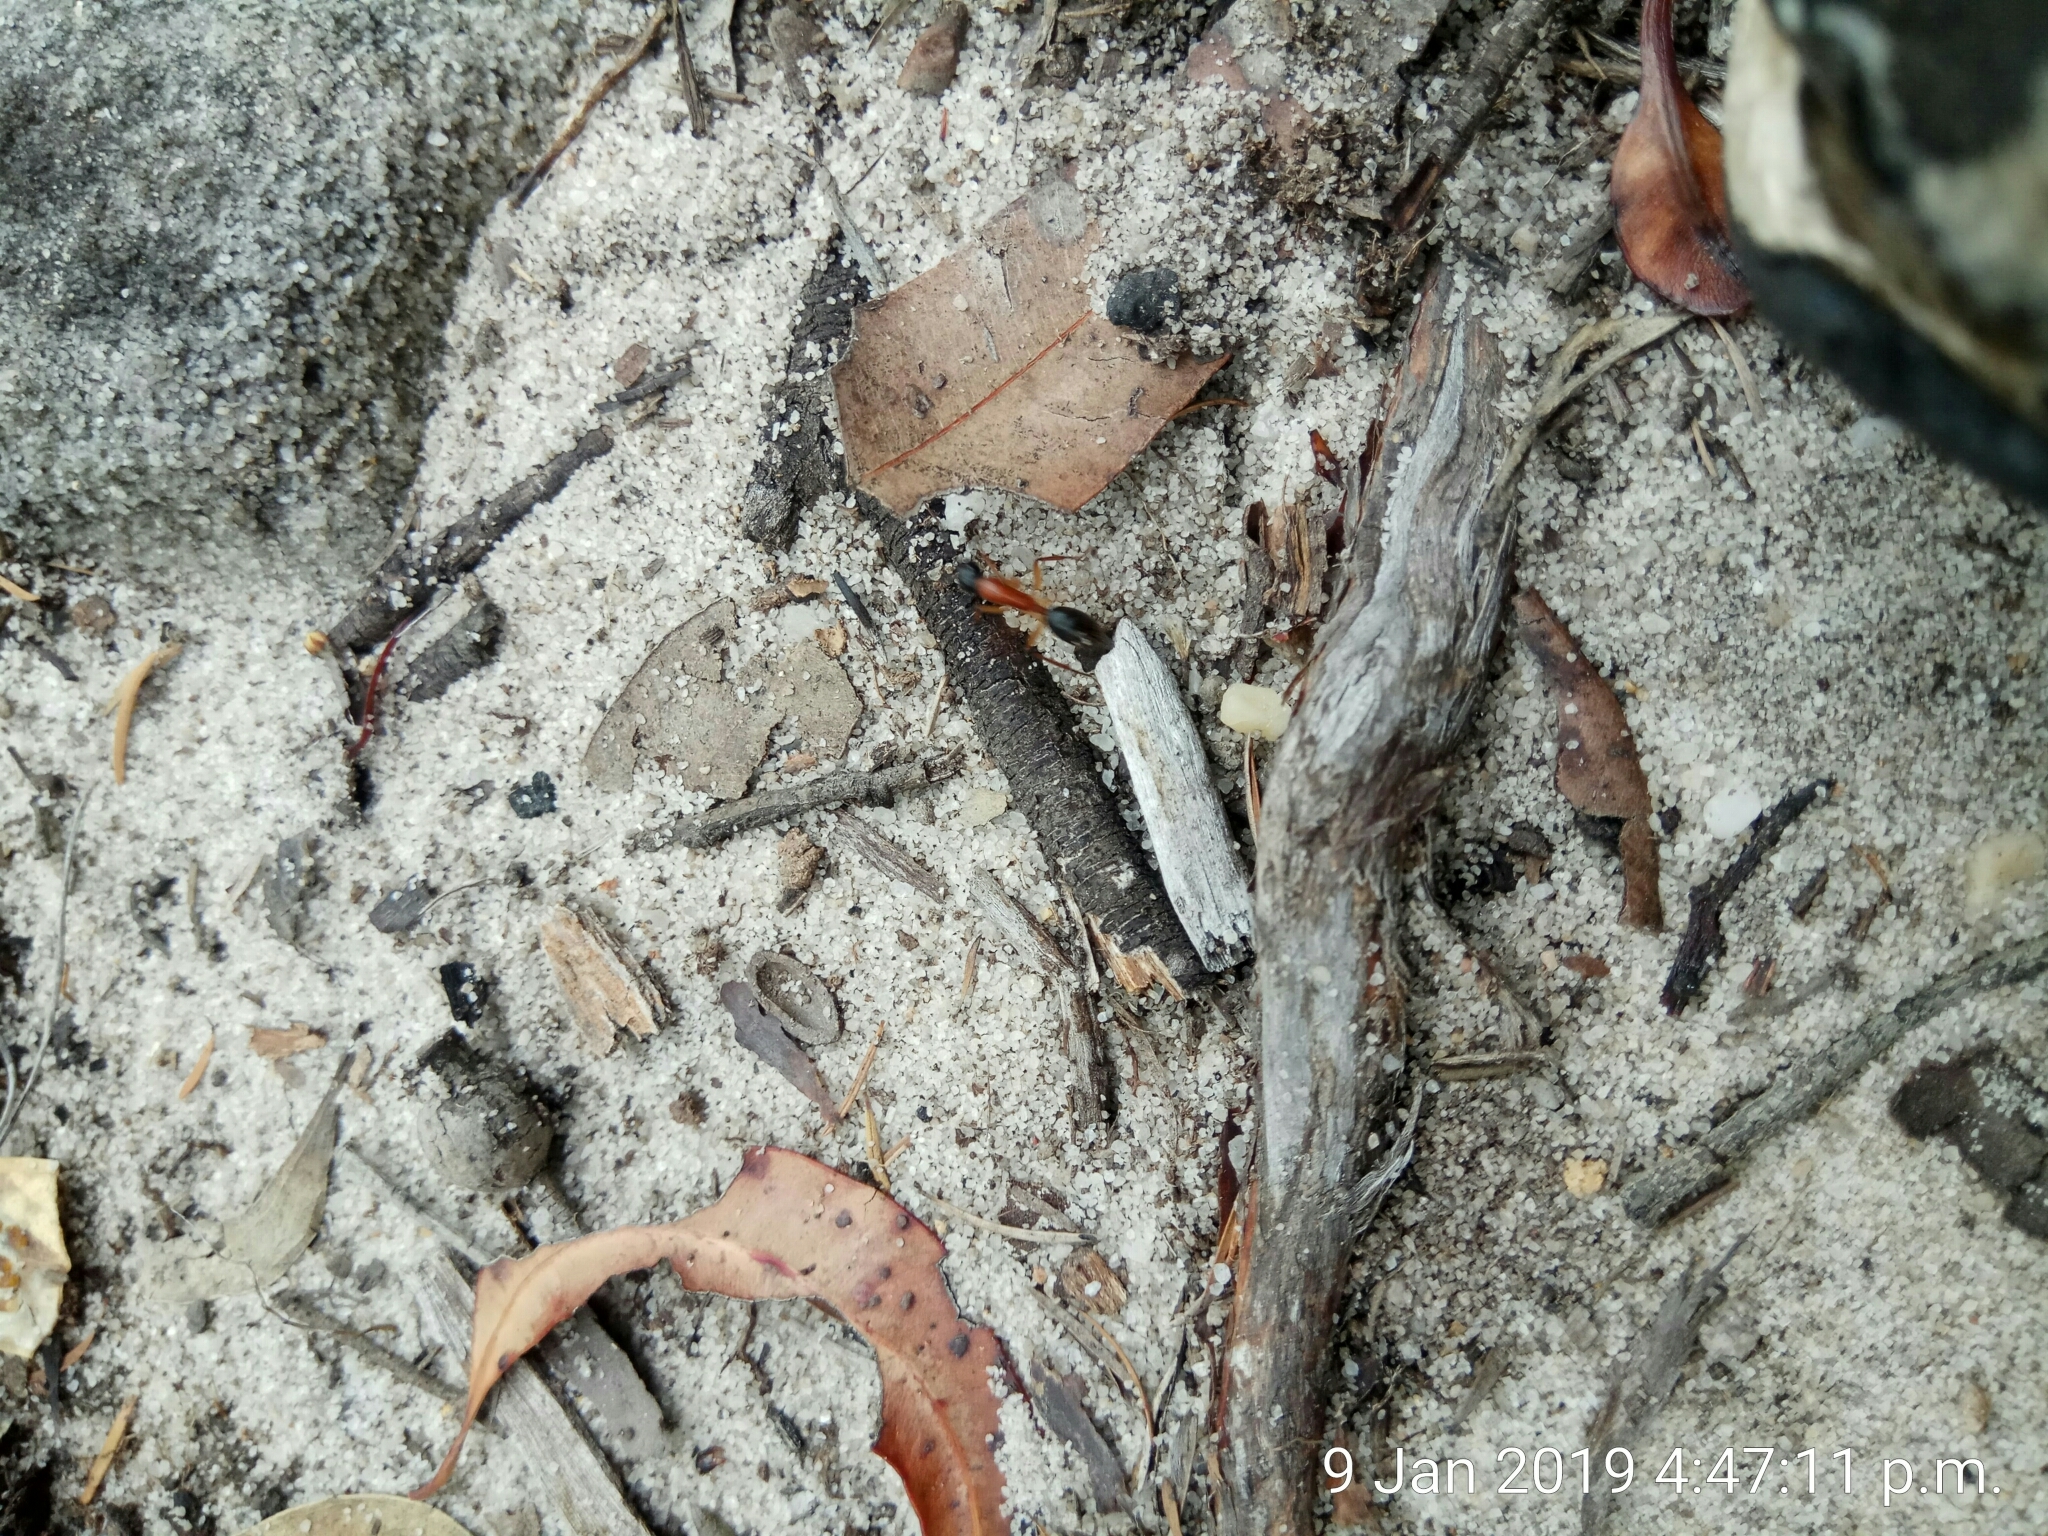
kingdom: Animalia
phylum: Arthropoda
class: Insecta
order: Hymenoptera
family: Formicidae
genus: Camponotus
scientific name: Camponotus nigriceps
